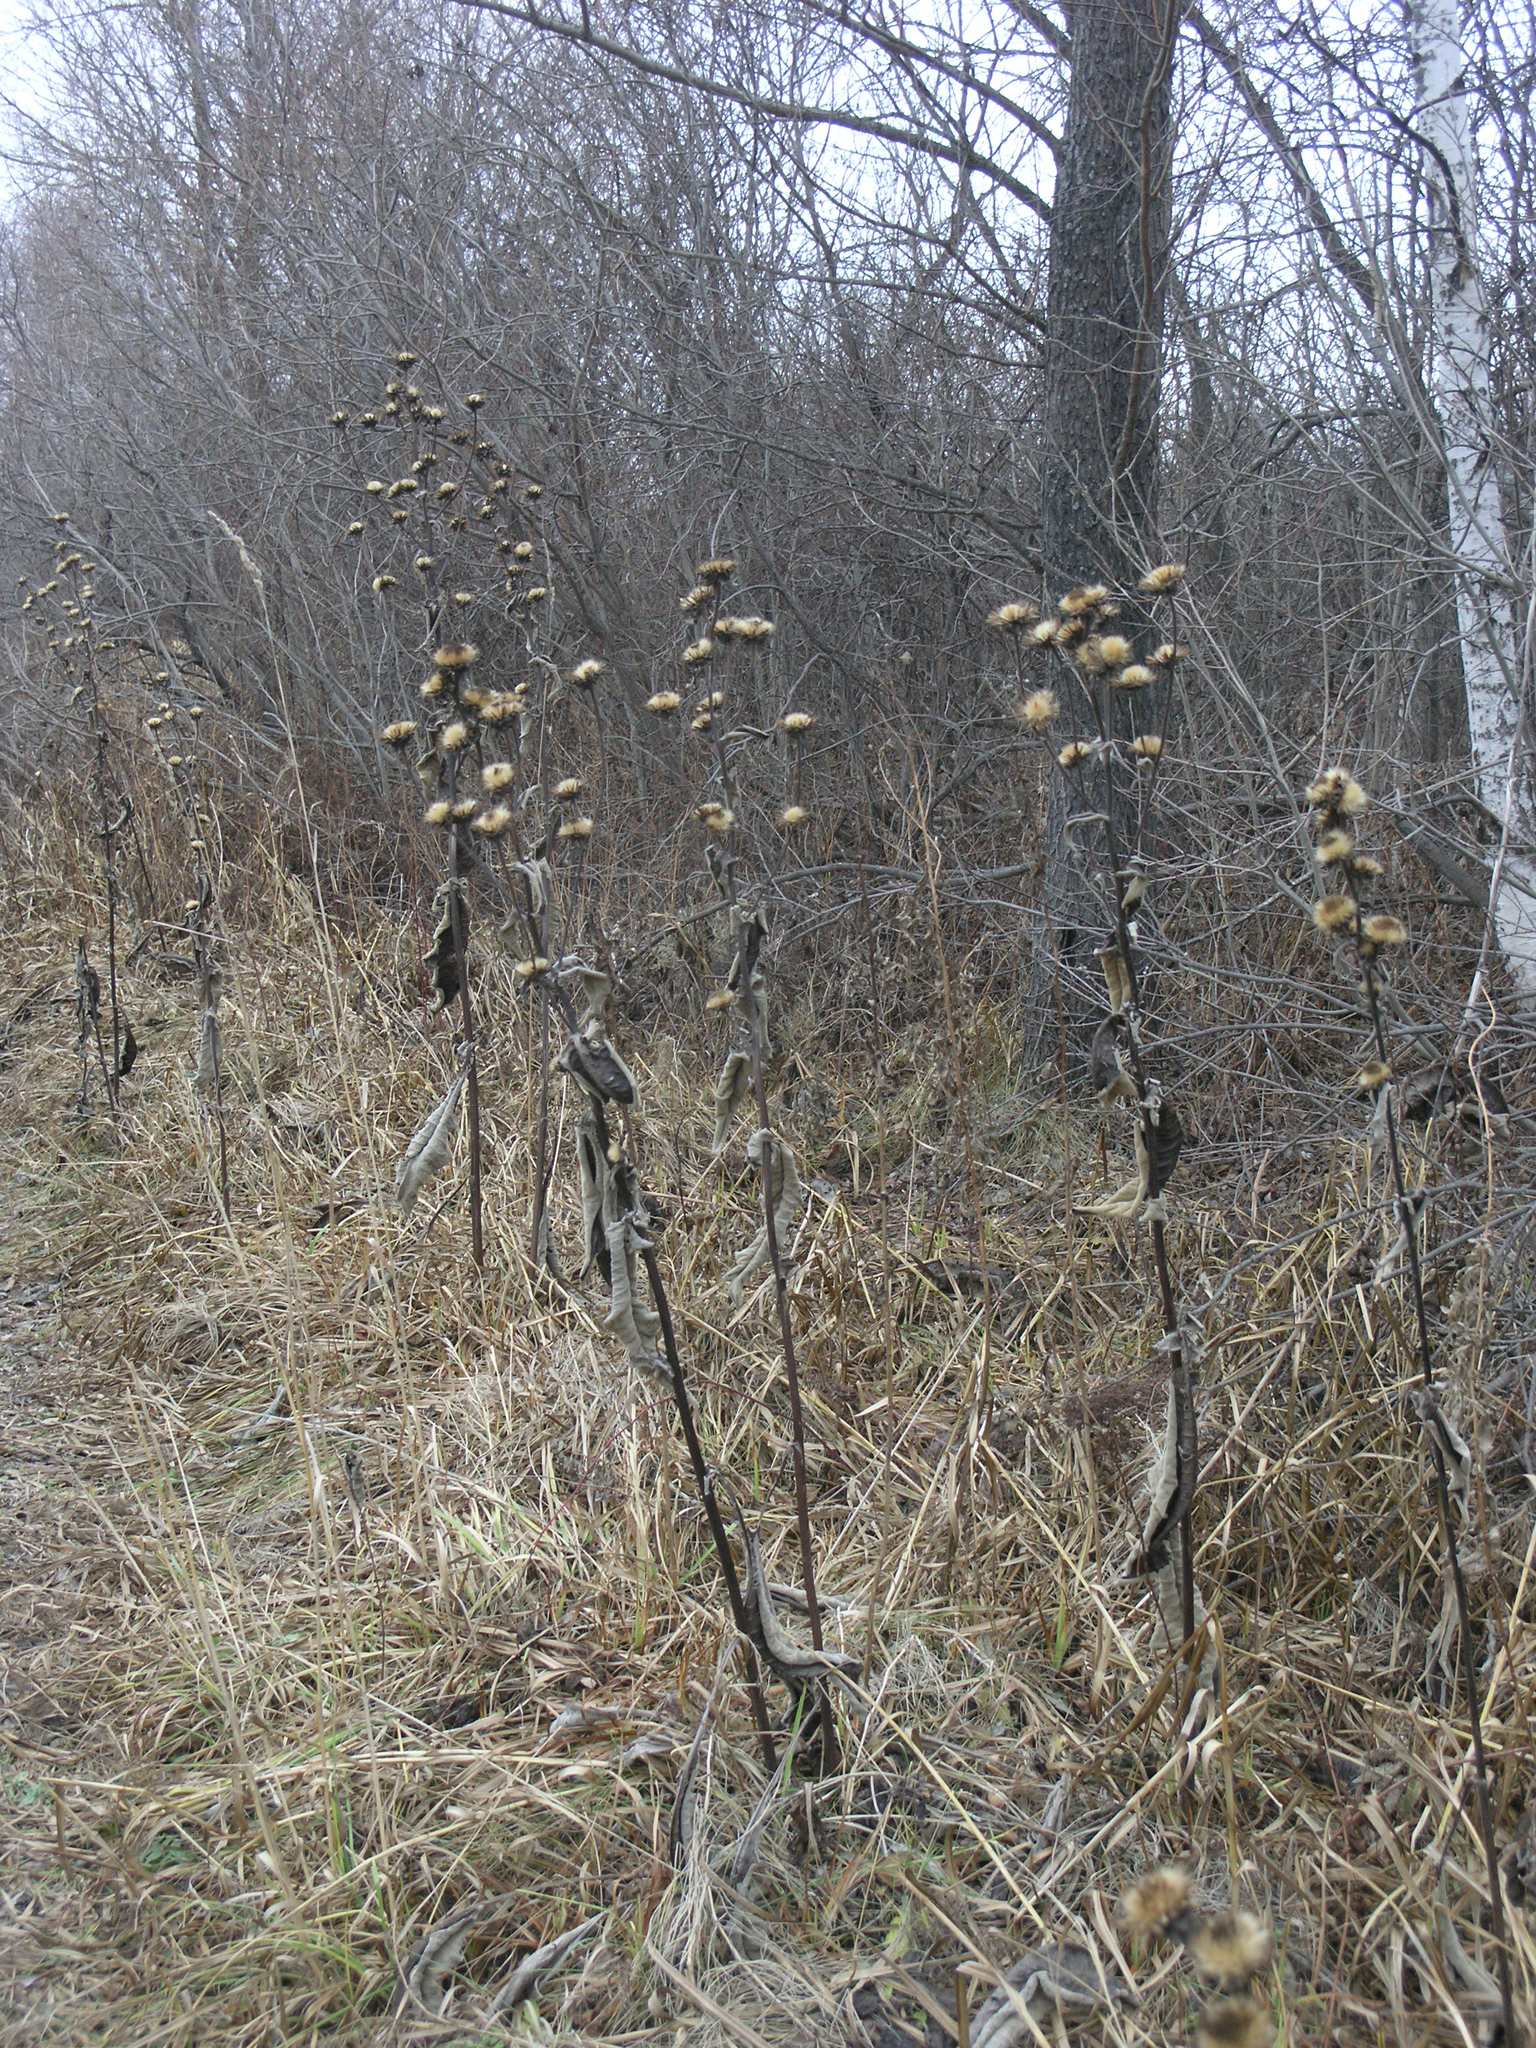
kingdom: Plantae
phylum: Tracheophyta
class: Magnoliopsida
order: Asterales
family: Asteraceae
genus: Inula
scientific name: Inula helenium
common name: Elecampane
